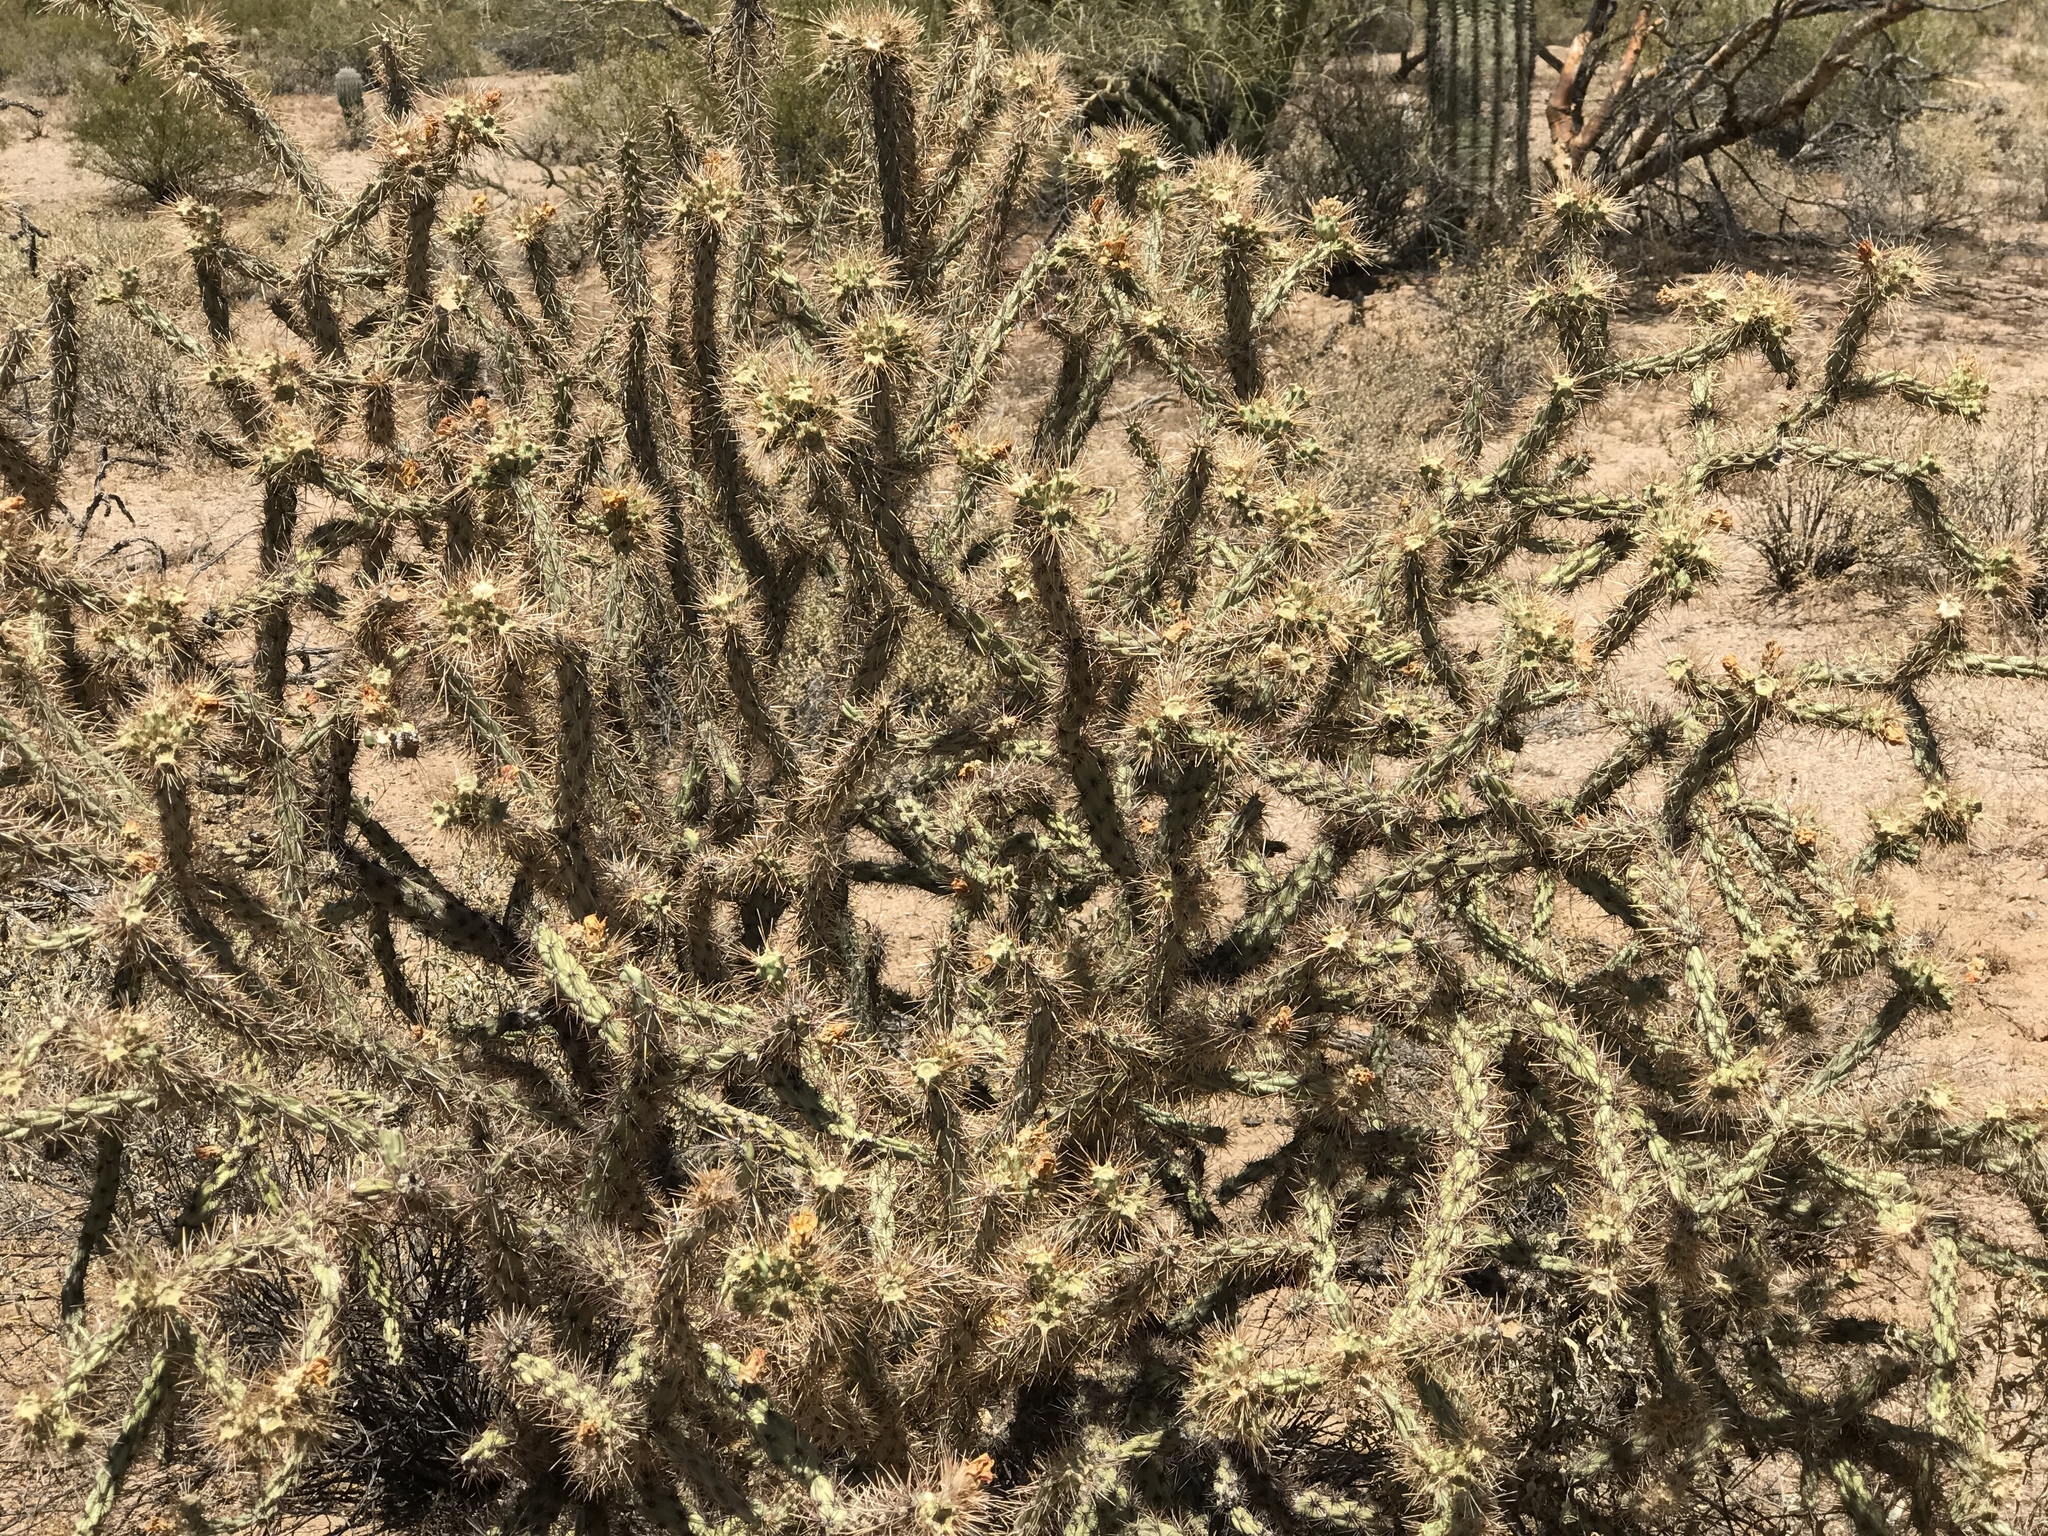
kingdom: Plantae
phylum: Tracheophyta
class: Magnoliopsida
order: Caryophyllales
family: Cactaceae
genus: Cylindropuntia
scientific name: Cylindropuntia acanthocarpa
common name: Buckhorn cholla
